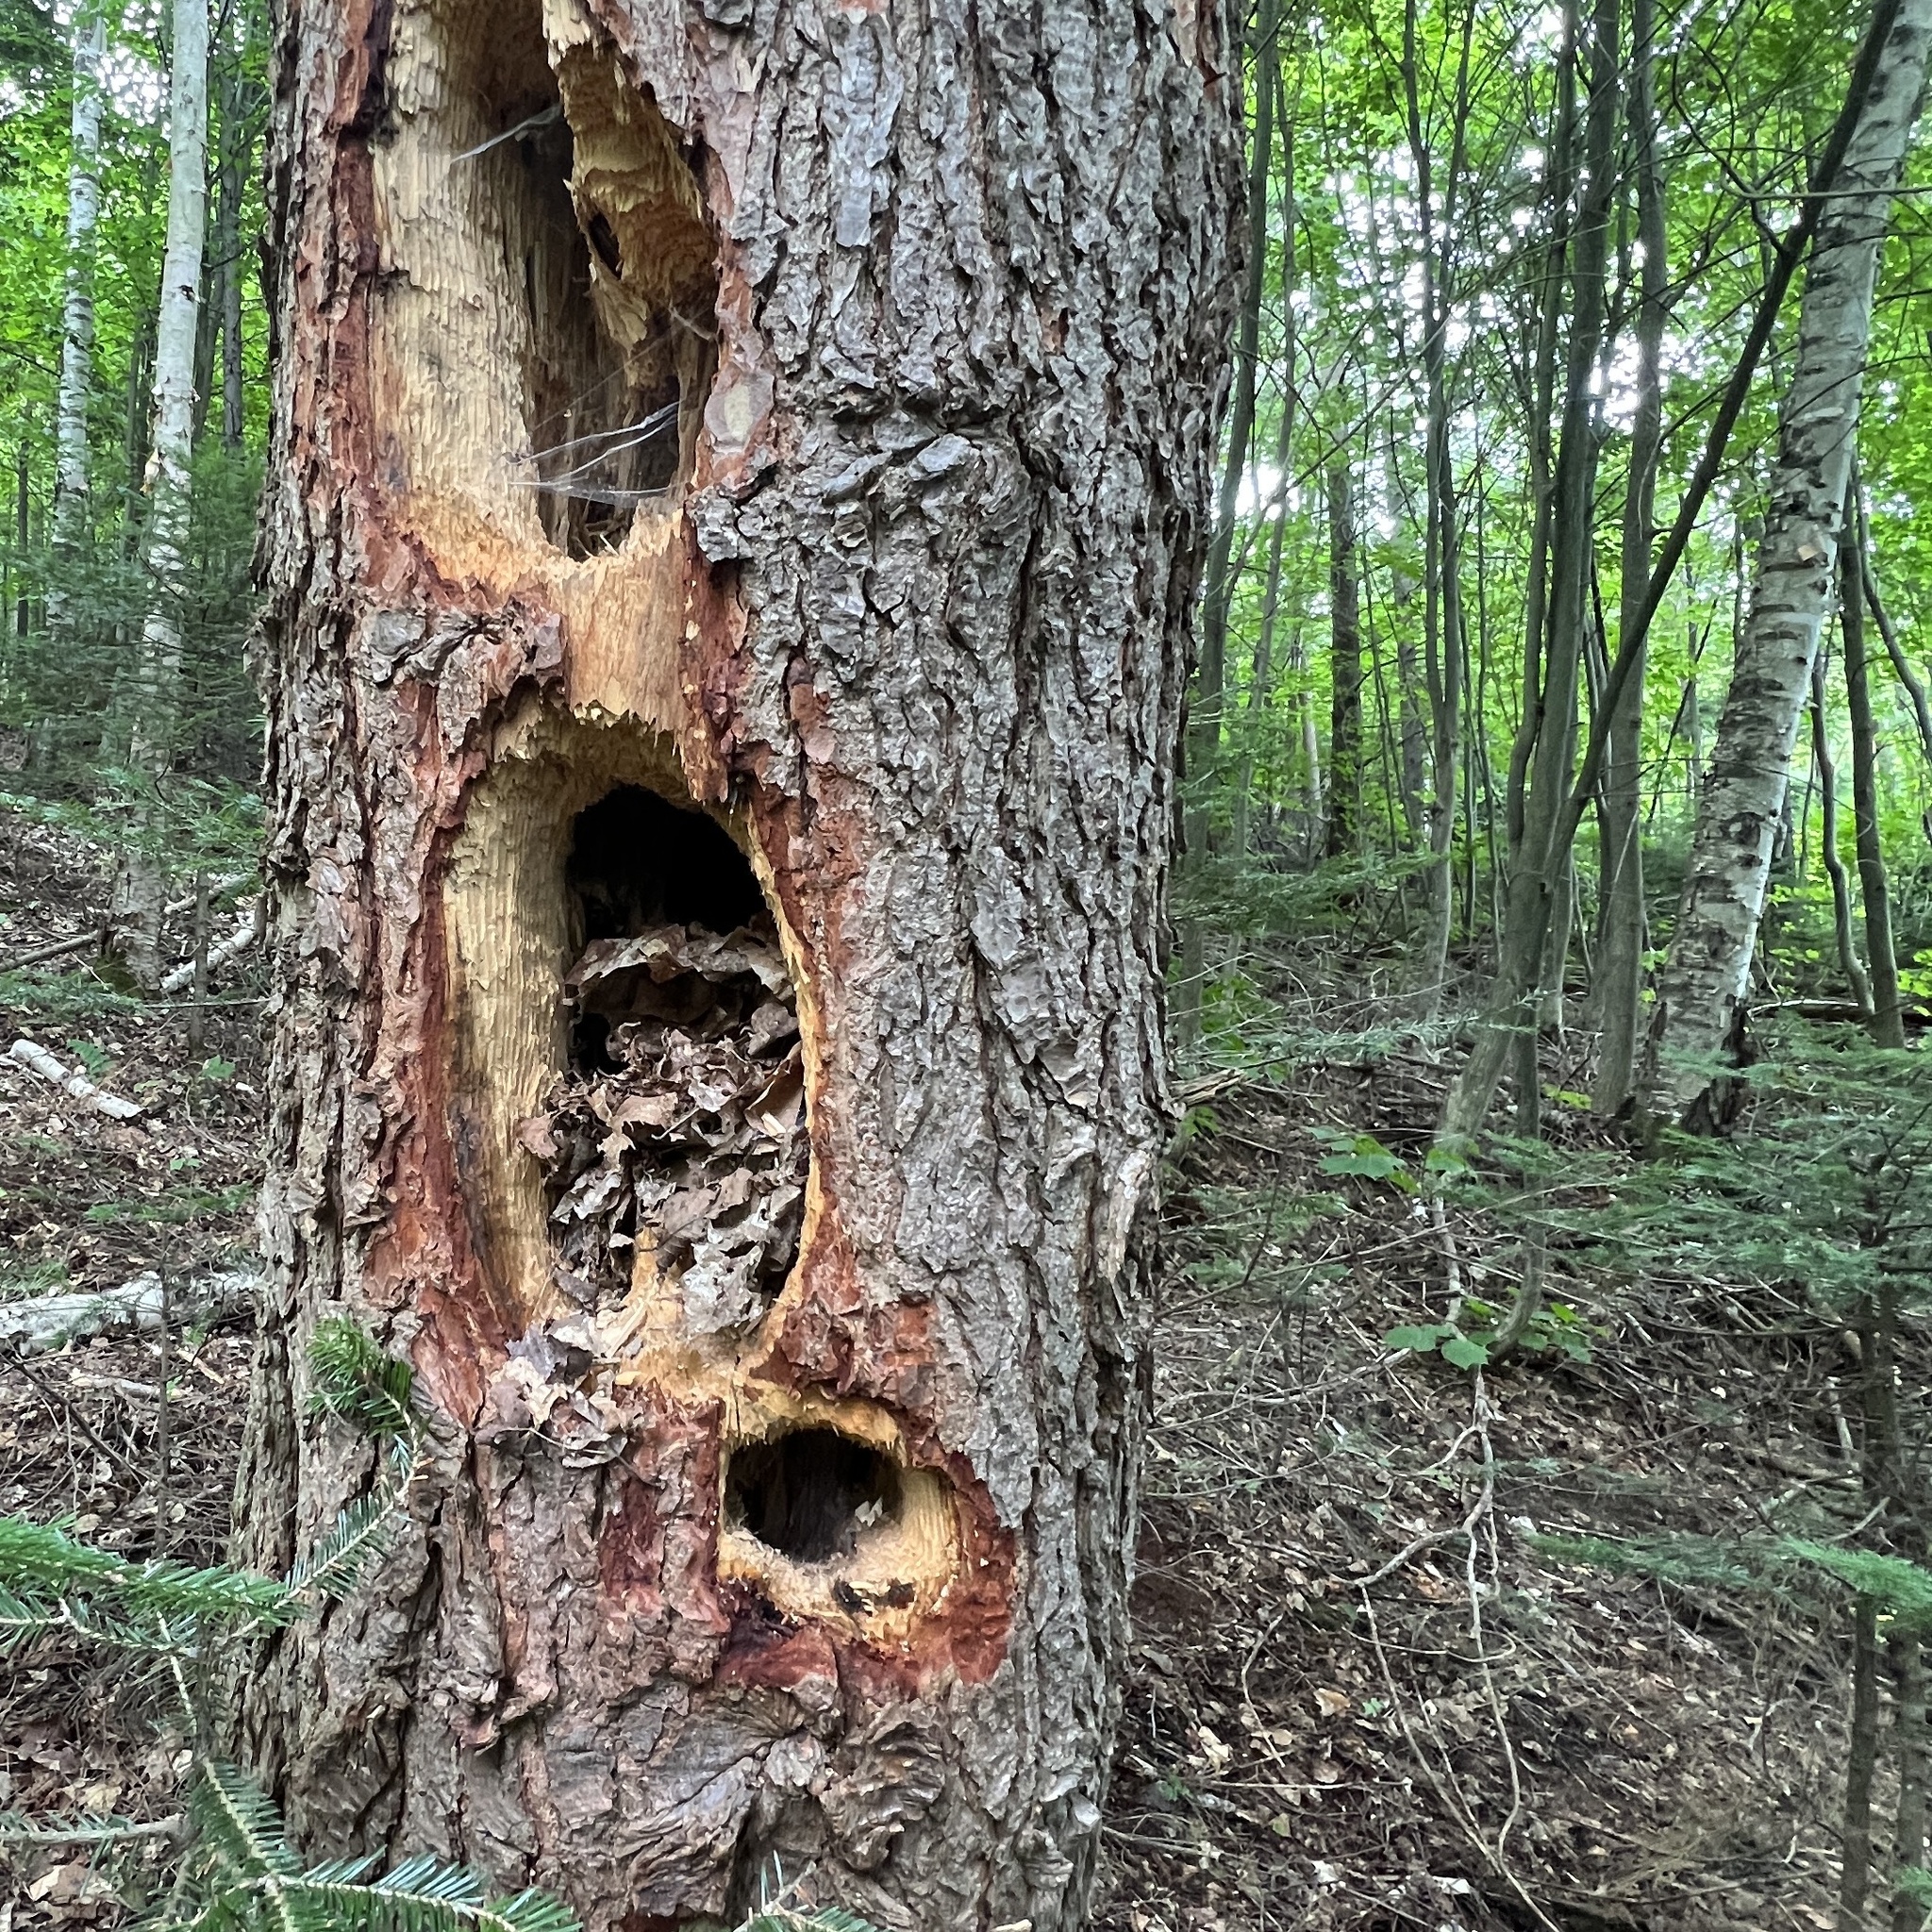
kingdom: Animalia
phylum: Chordata
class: Aves
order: Piciformes
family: Picidae
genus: Dryocopus
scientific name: Dryocopus pileatus
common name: Pileated woodpecker
